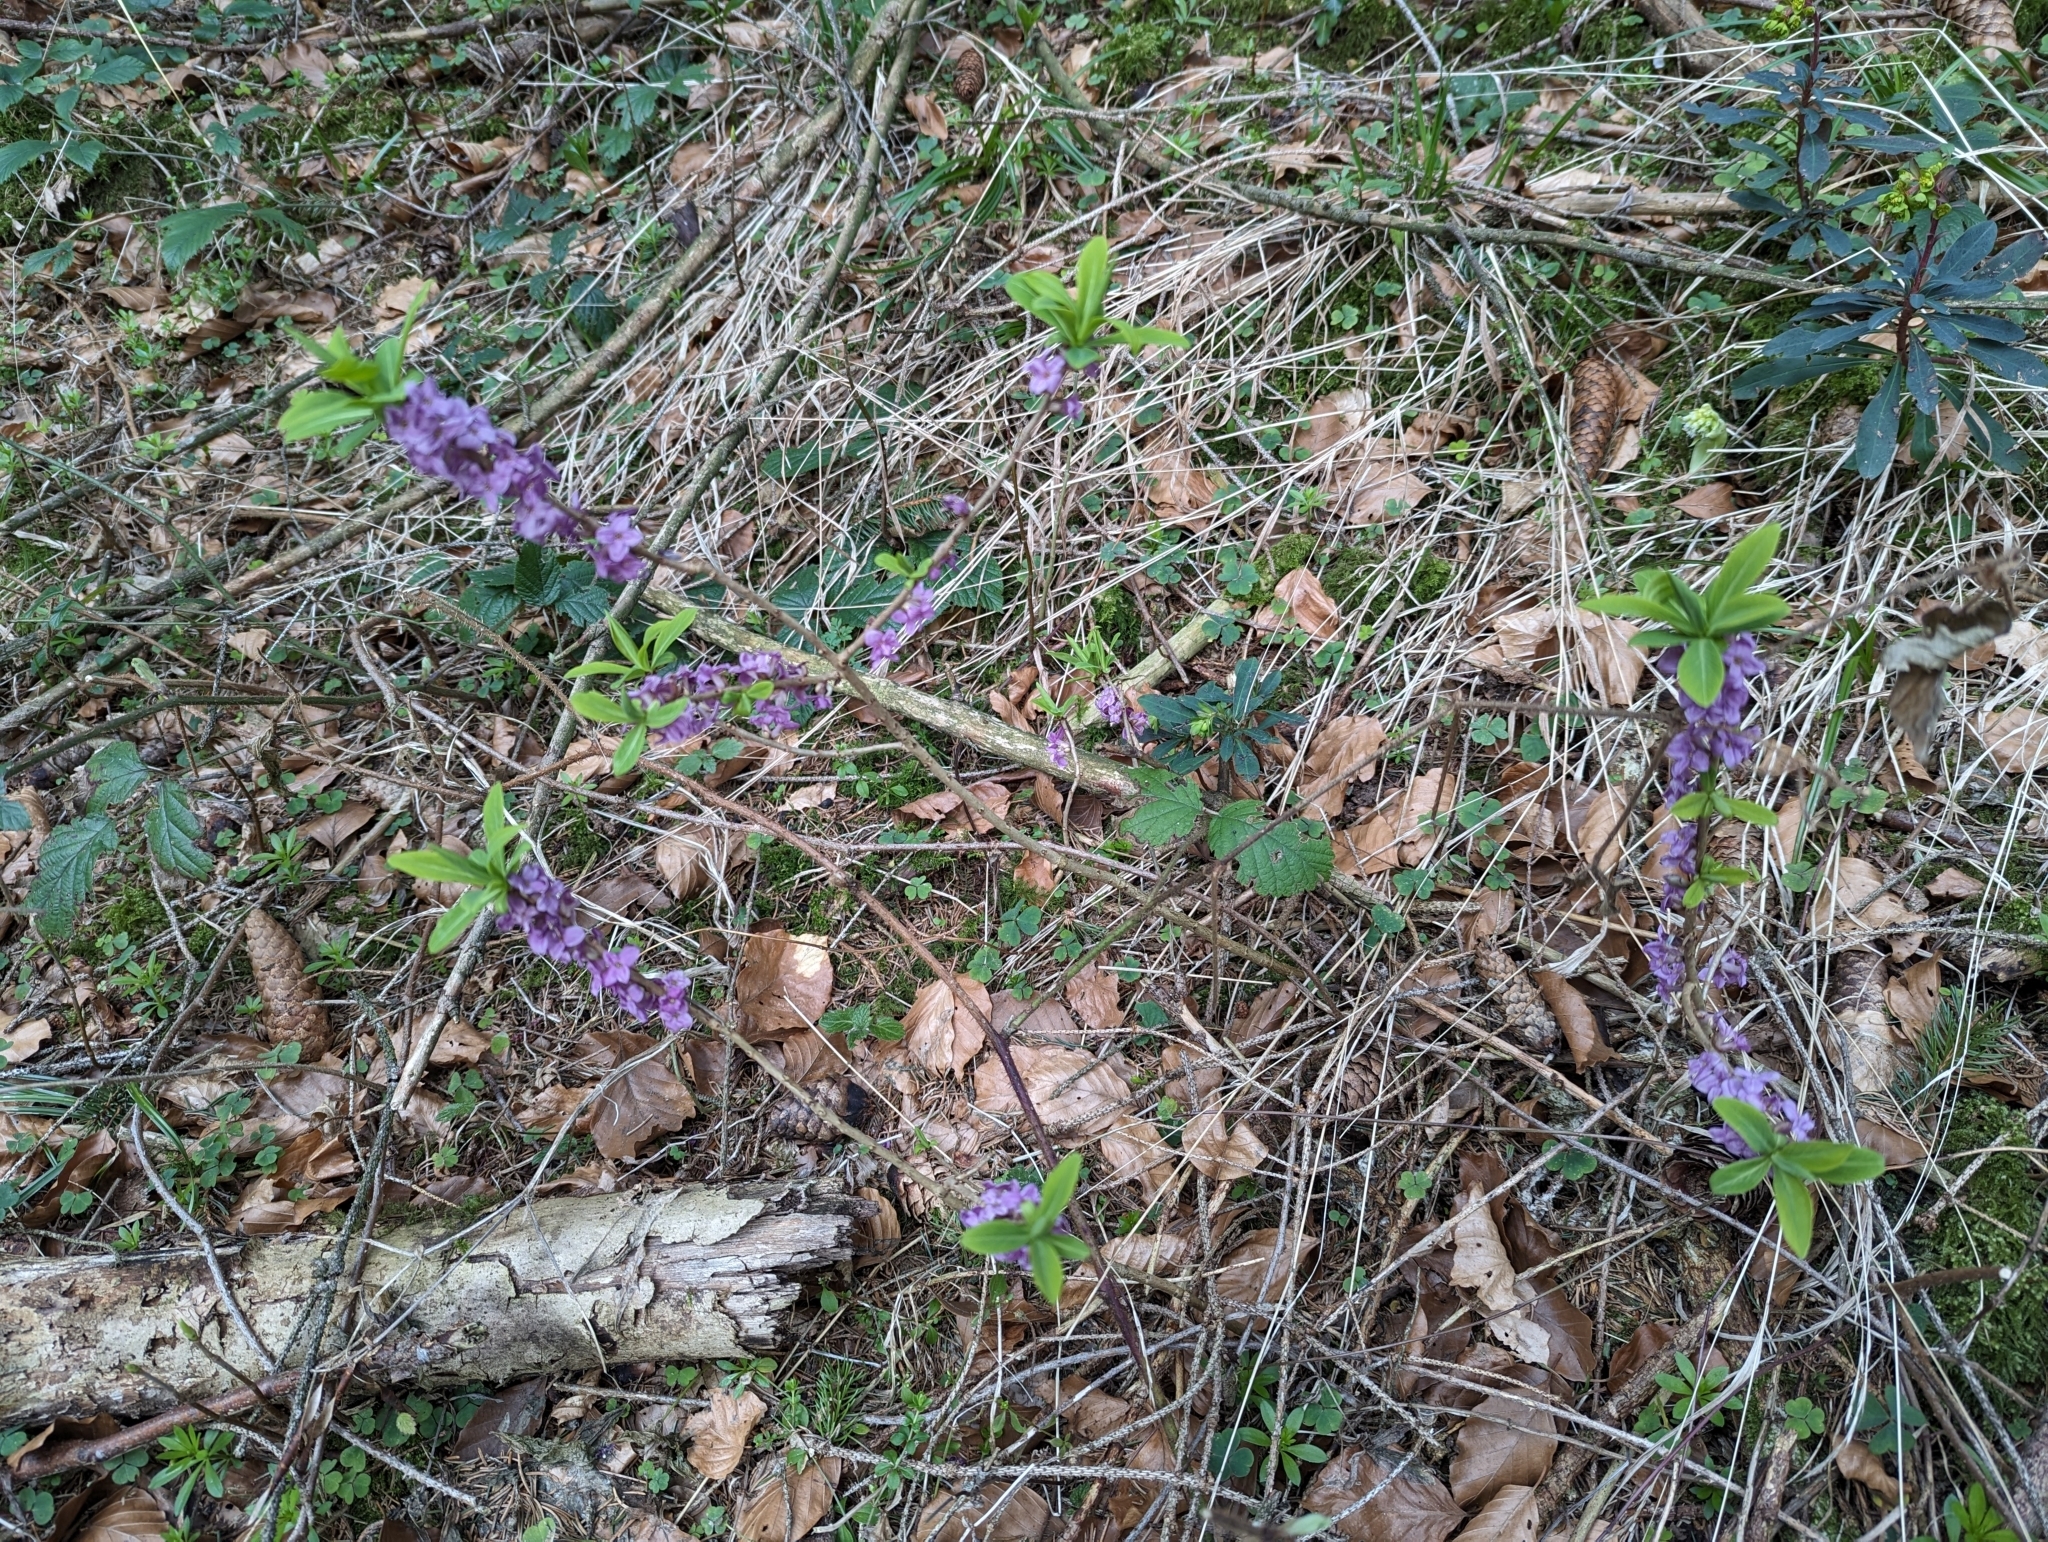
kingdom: Plantae
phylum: Tracheophyta
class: Magnoliopsida
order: Malvales
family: Thymelaeaceae
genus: Daphne
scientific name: Daphne mezereum
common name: Mezereon
